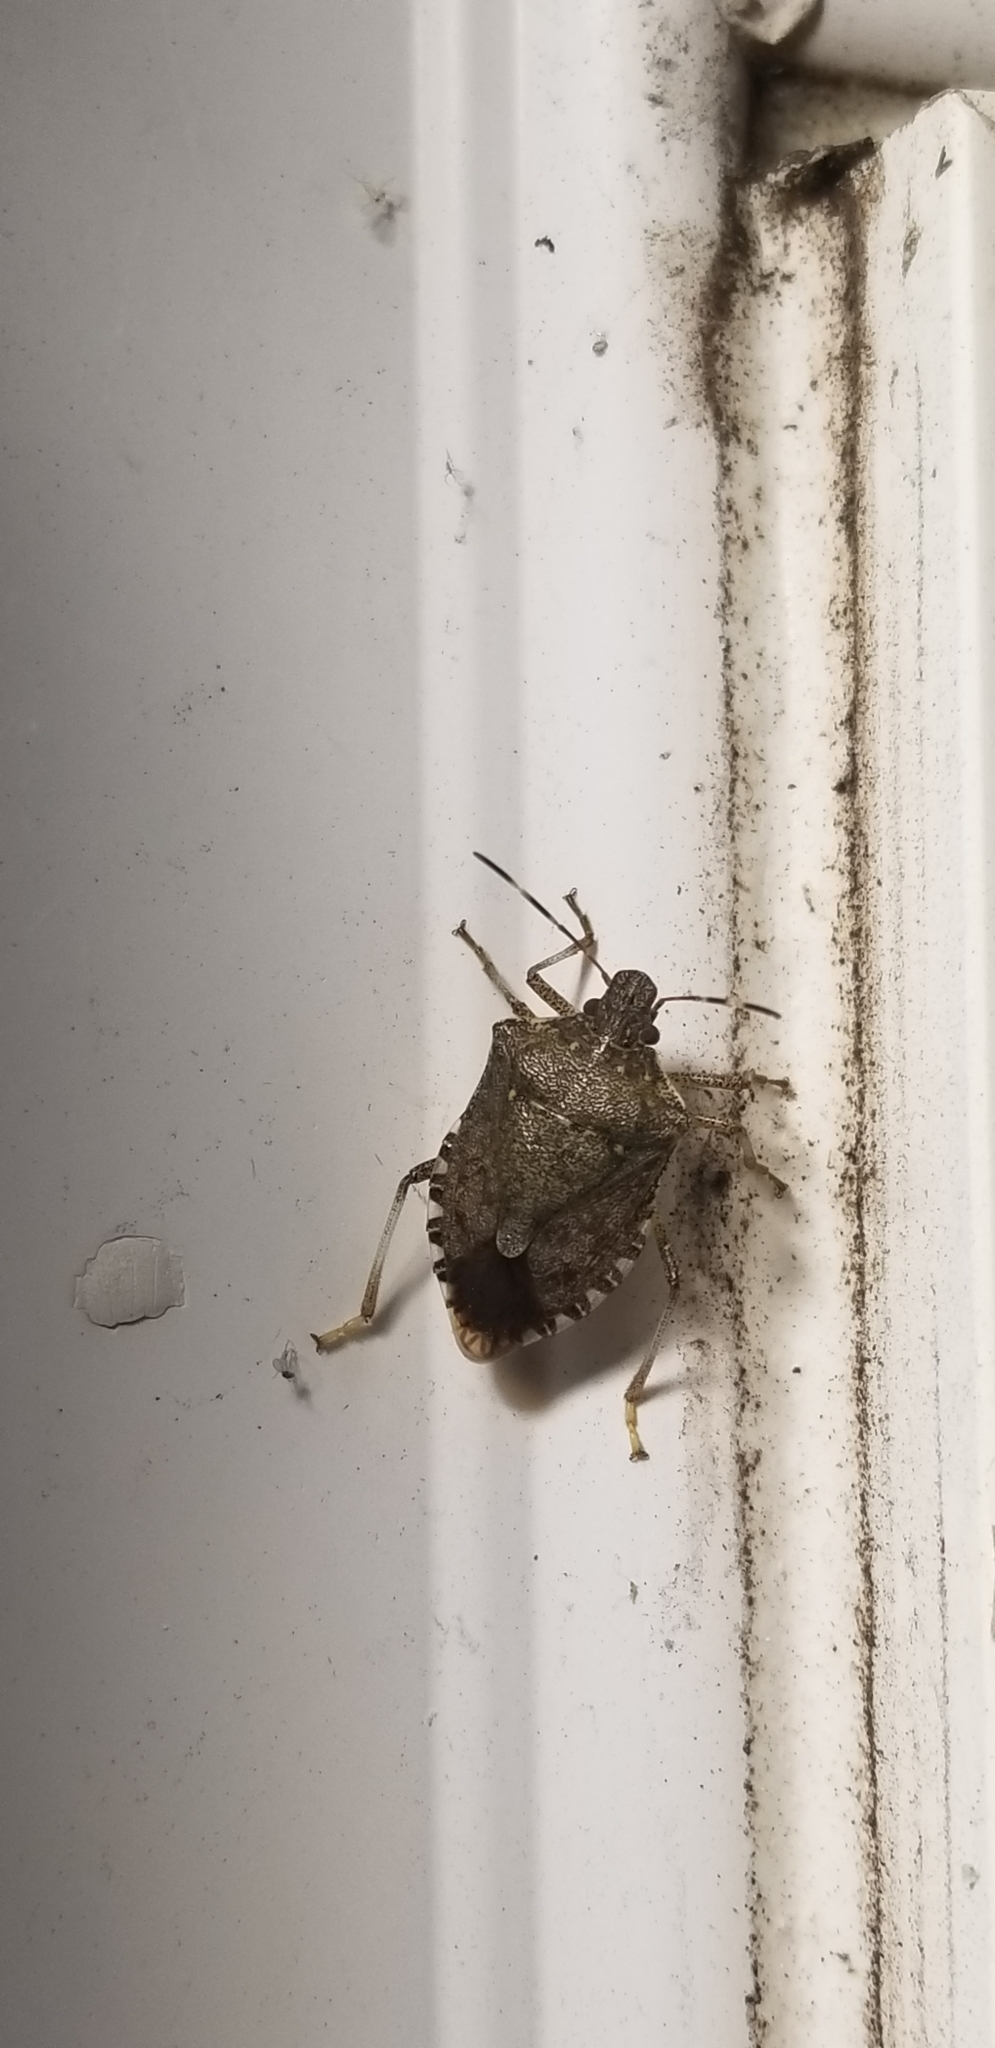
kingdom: Animalia
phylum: Arthropoda
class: Insecta
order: Hemiptera
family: Pentatomidae
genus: Halyomorpha
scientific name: Halyomorpha halys
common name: Brown marmorated stink bug
